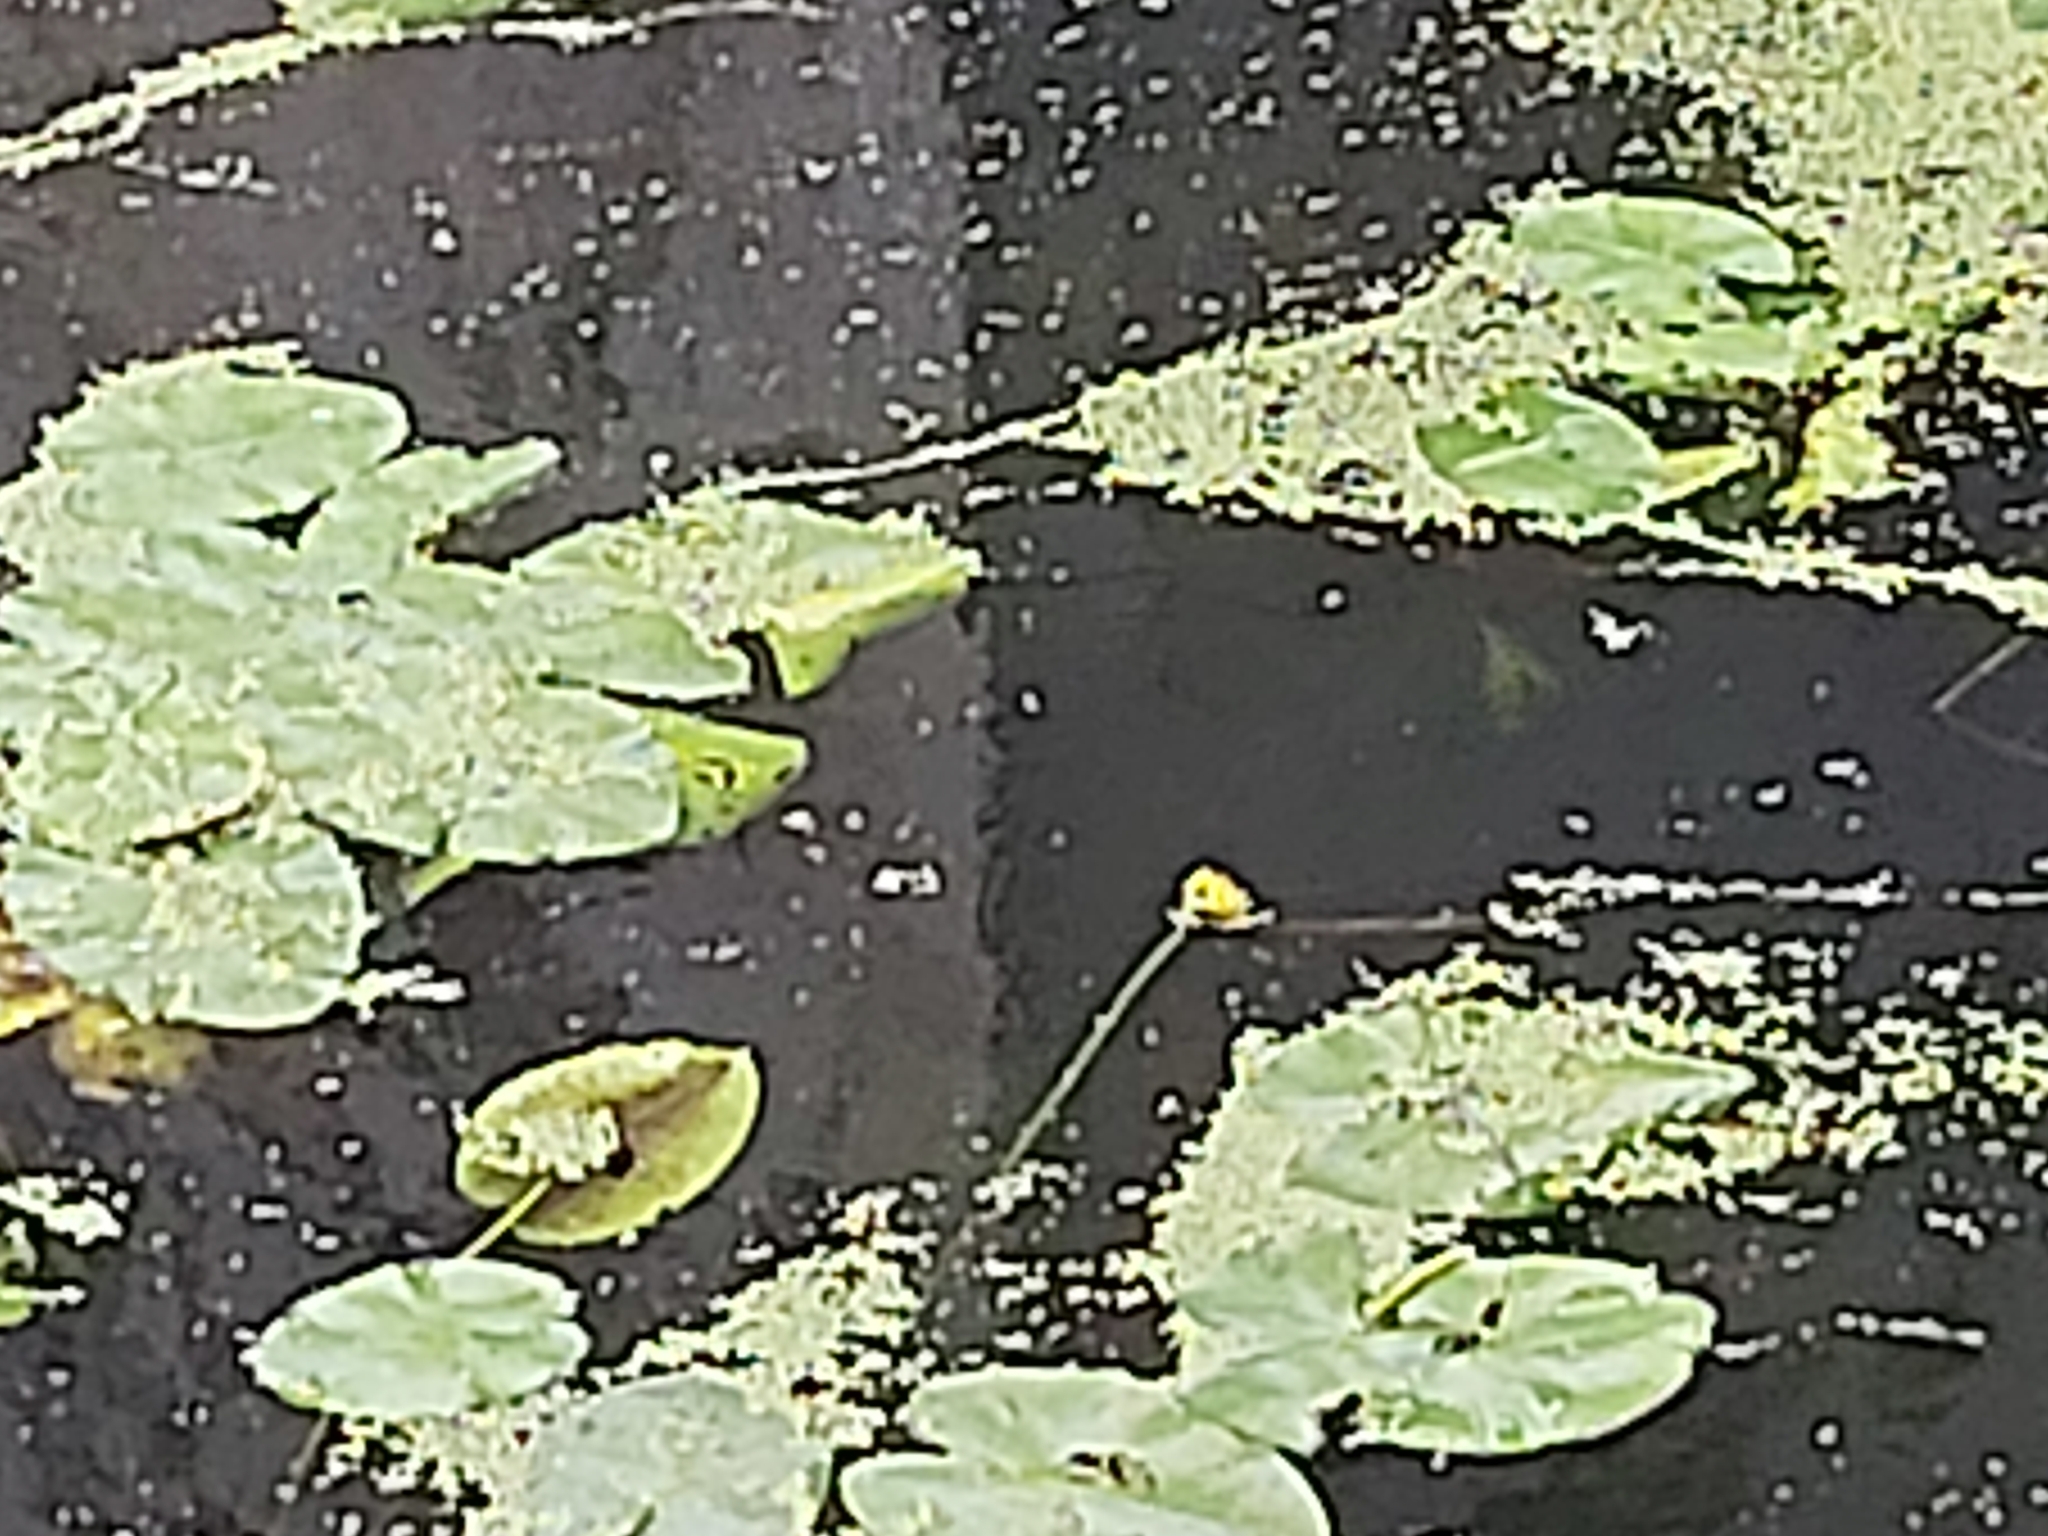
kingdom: Plantae
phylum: Tracheophyta
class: Magnoliopsida
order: Nymphaeales
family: Nymphaeaceae
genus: Nuphar
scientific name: Nuphar lutea
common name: Yellow water-lily
